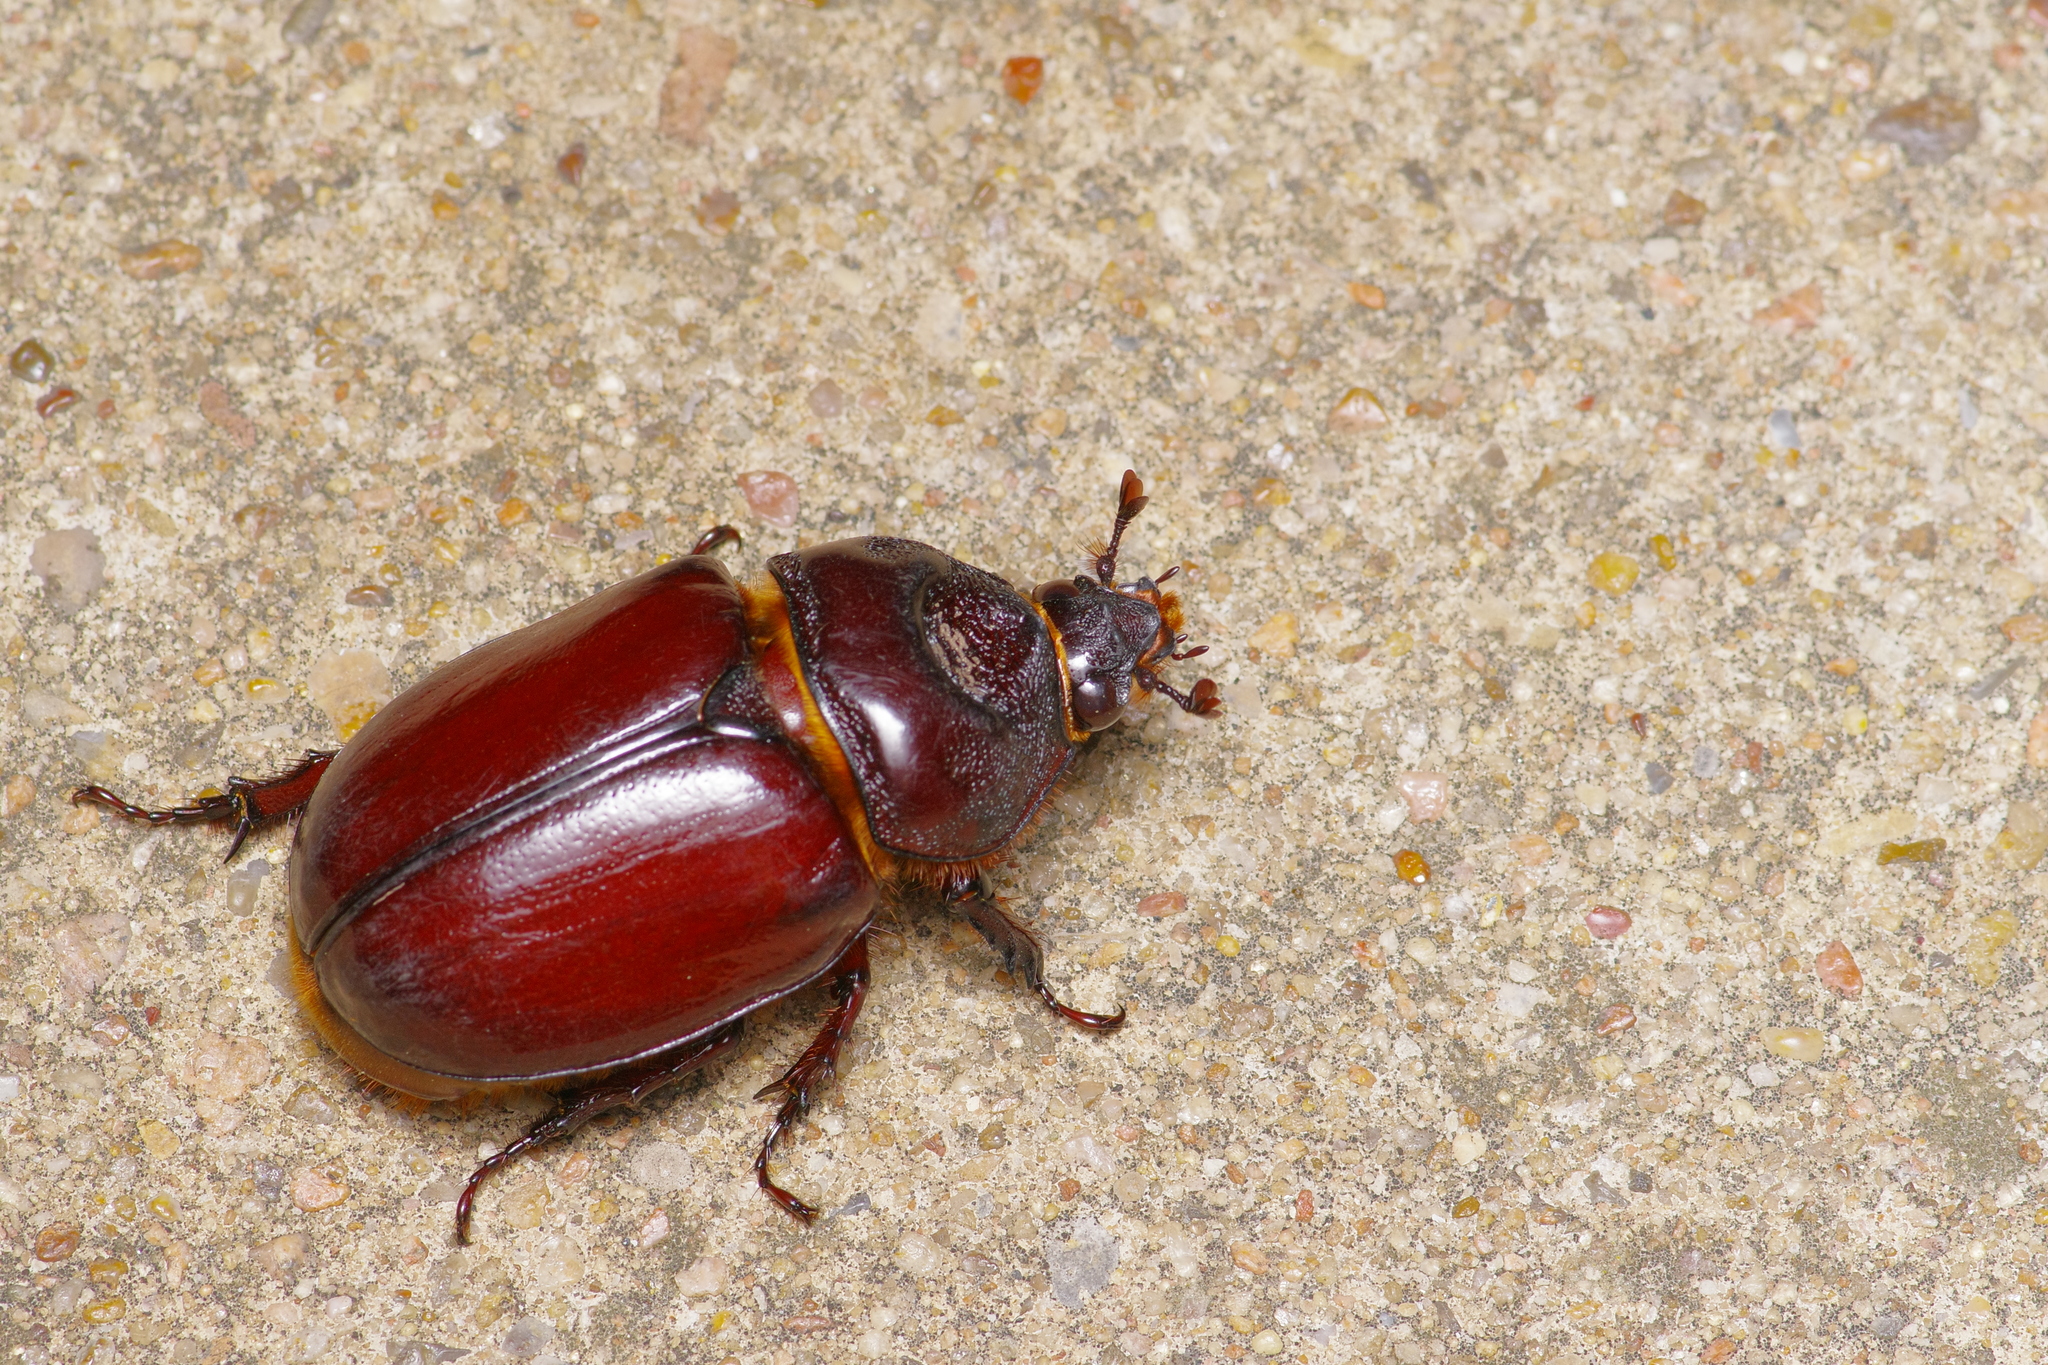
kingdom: Animalia
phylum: Arthropoda
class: Insecta
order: Coleoptera
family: Scarabaeidae
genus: Strategus
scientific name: Strategus aloeus
